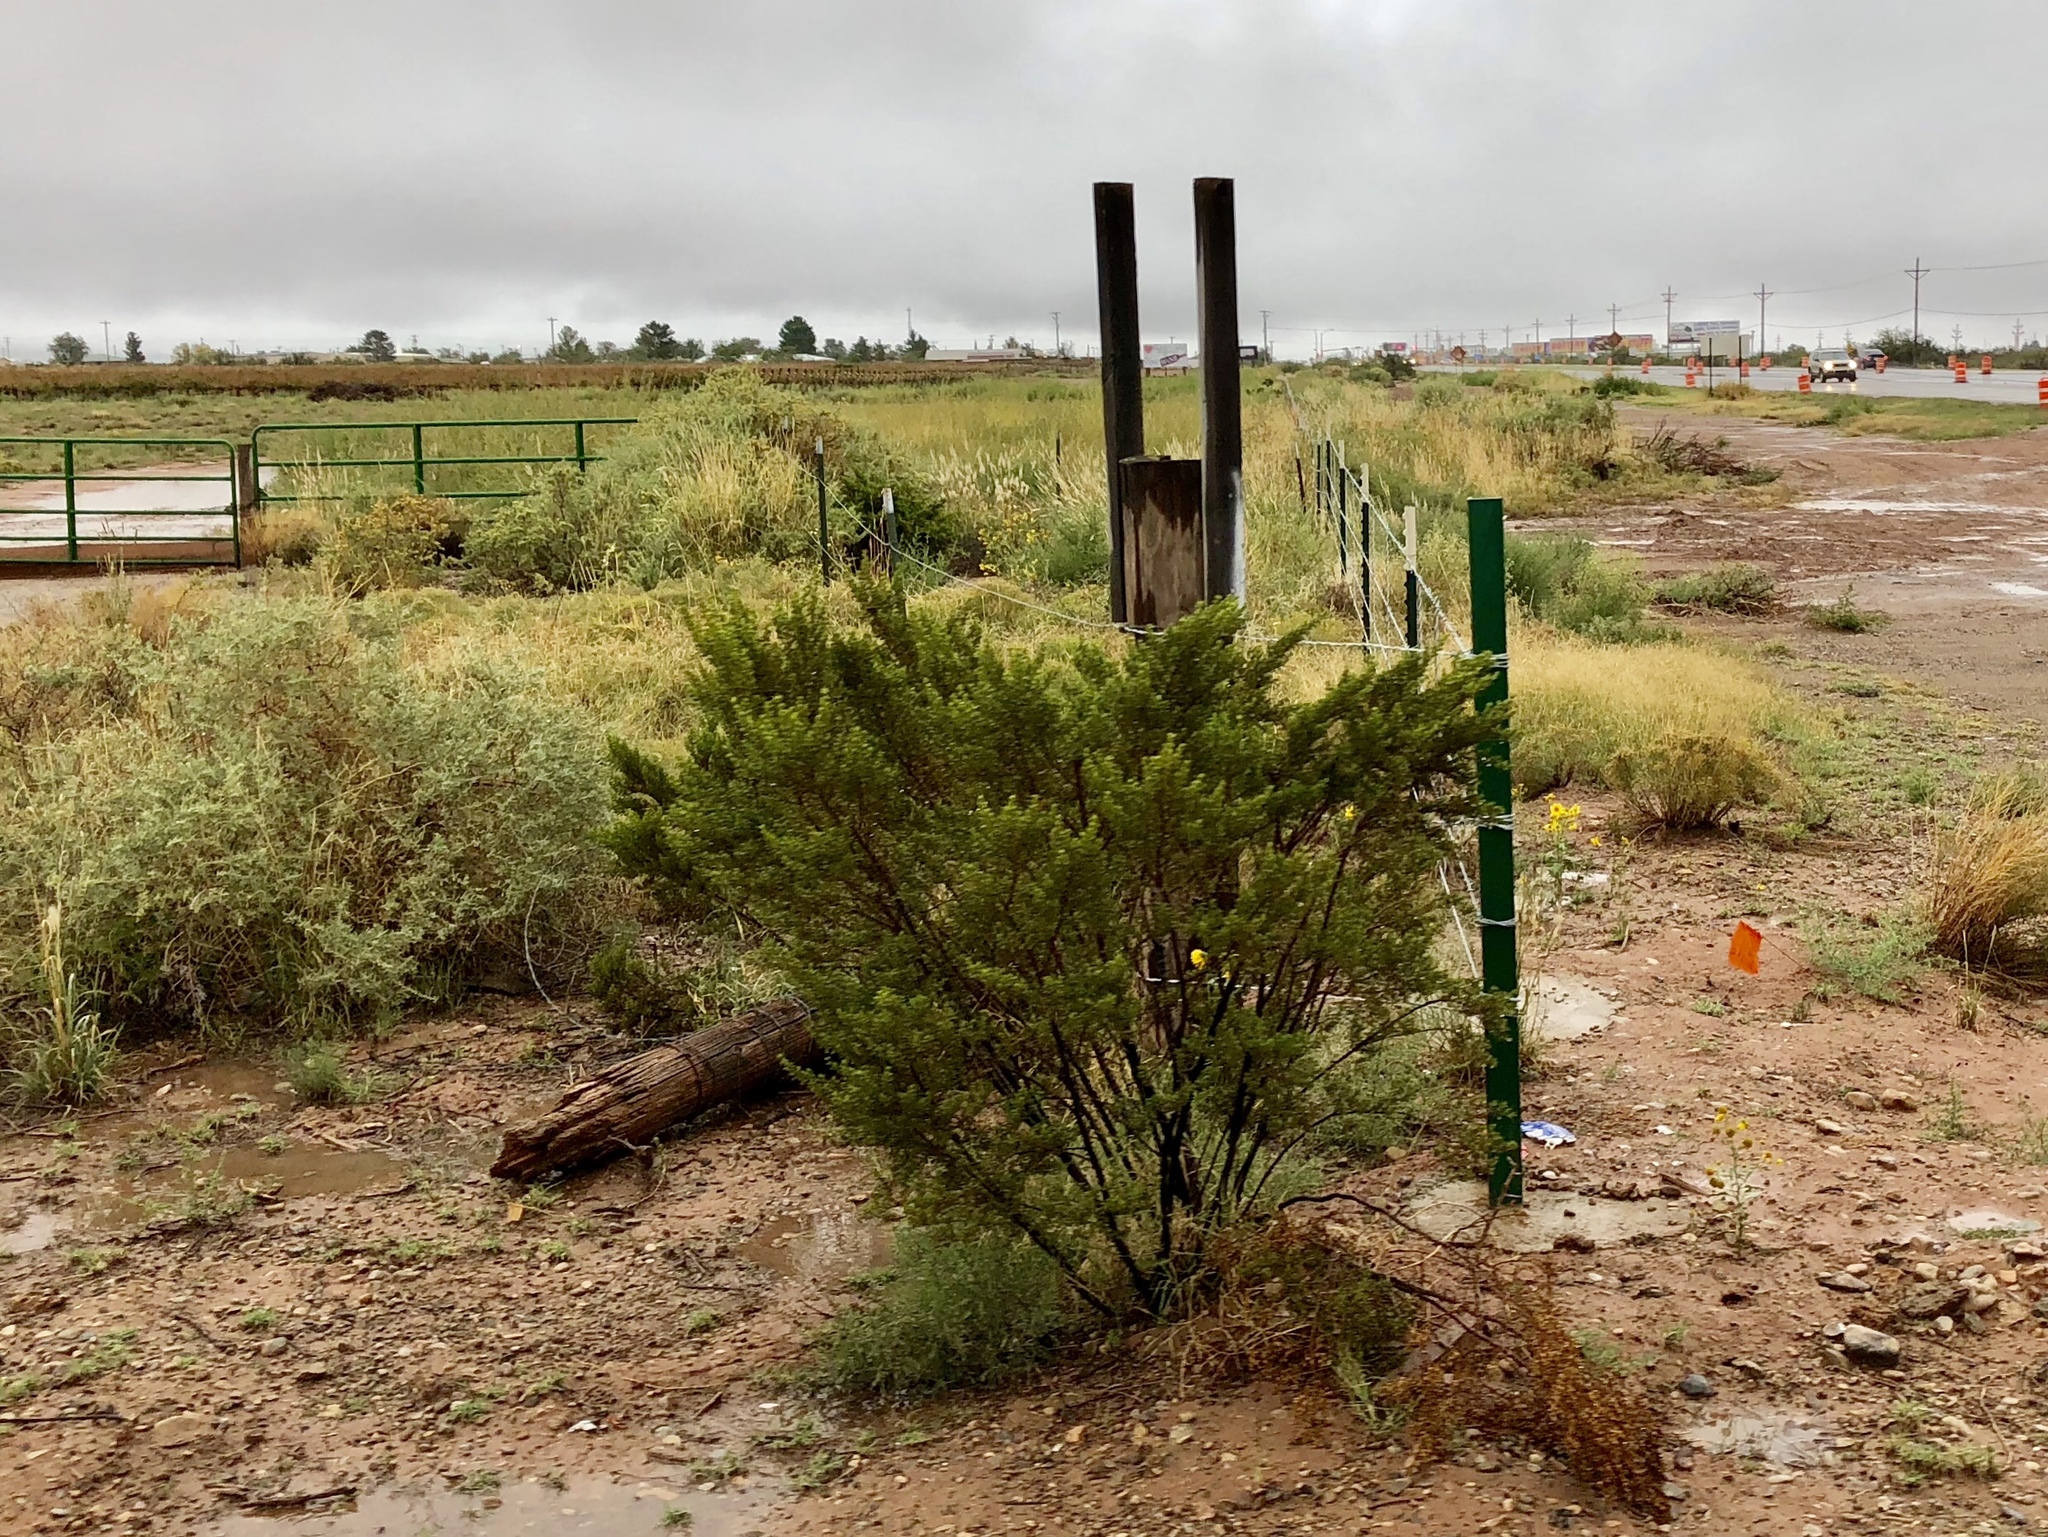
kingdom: Plantae
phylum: Tracheophyta
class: Magnoliopsida
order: Zygophyllales
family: Zygophyllaceae
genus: Larrea
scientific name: Larrea tridentata
